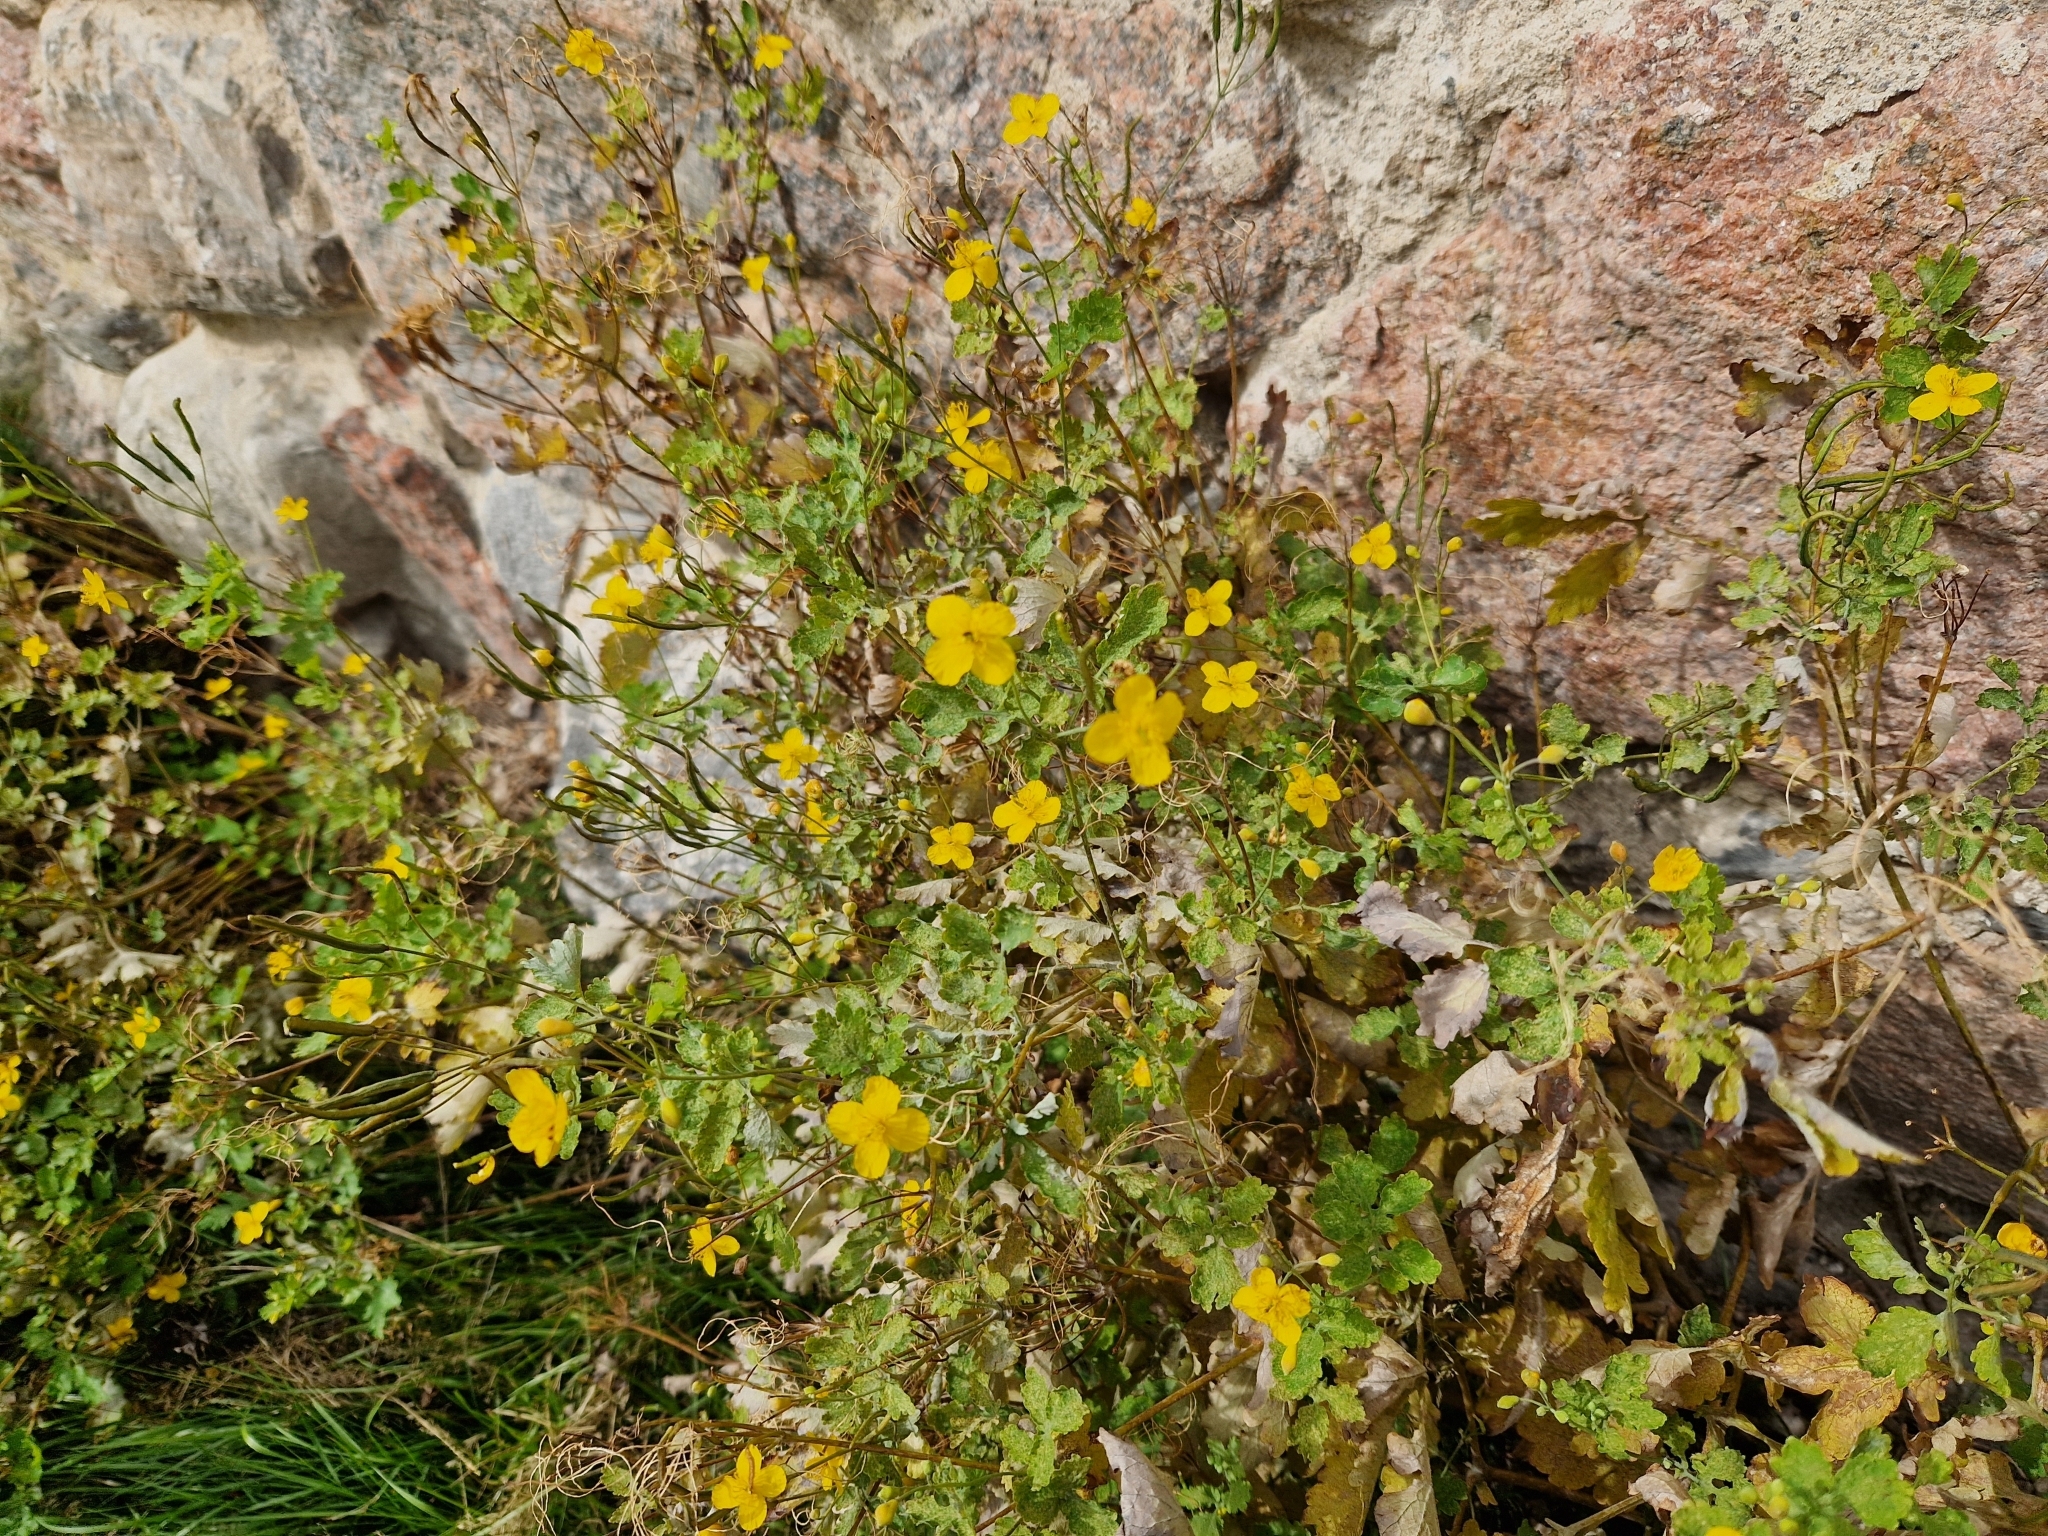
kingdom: Plantae
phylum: Tracheophyta
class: Magnoliopsida
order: Ranunculales
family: Papaveraceae
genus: Chelidonium
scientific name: Chelidonium majus
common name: Greater celandine
